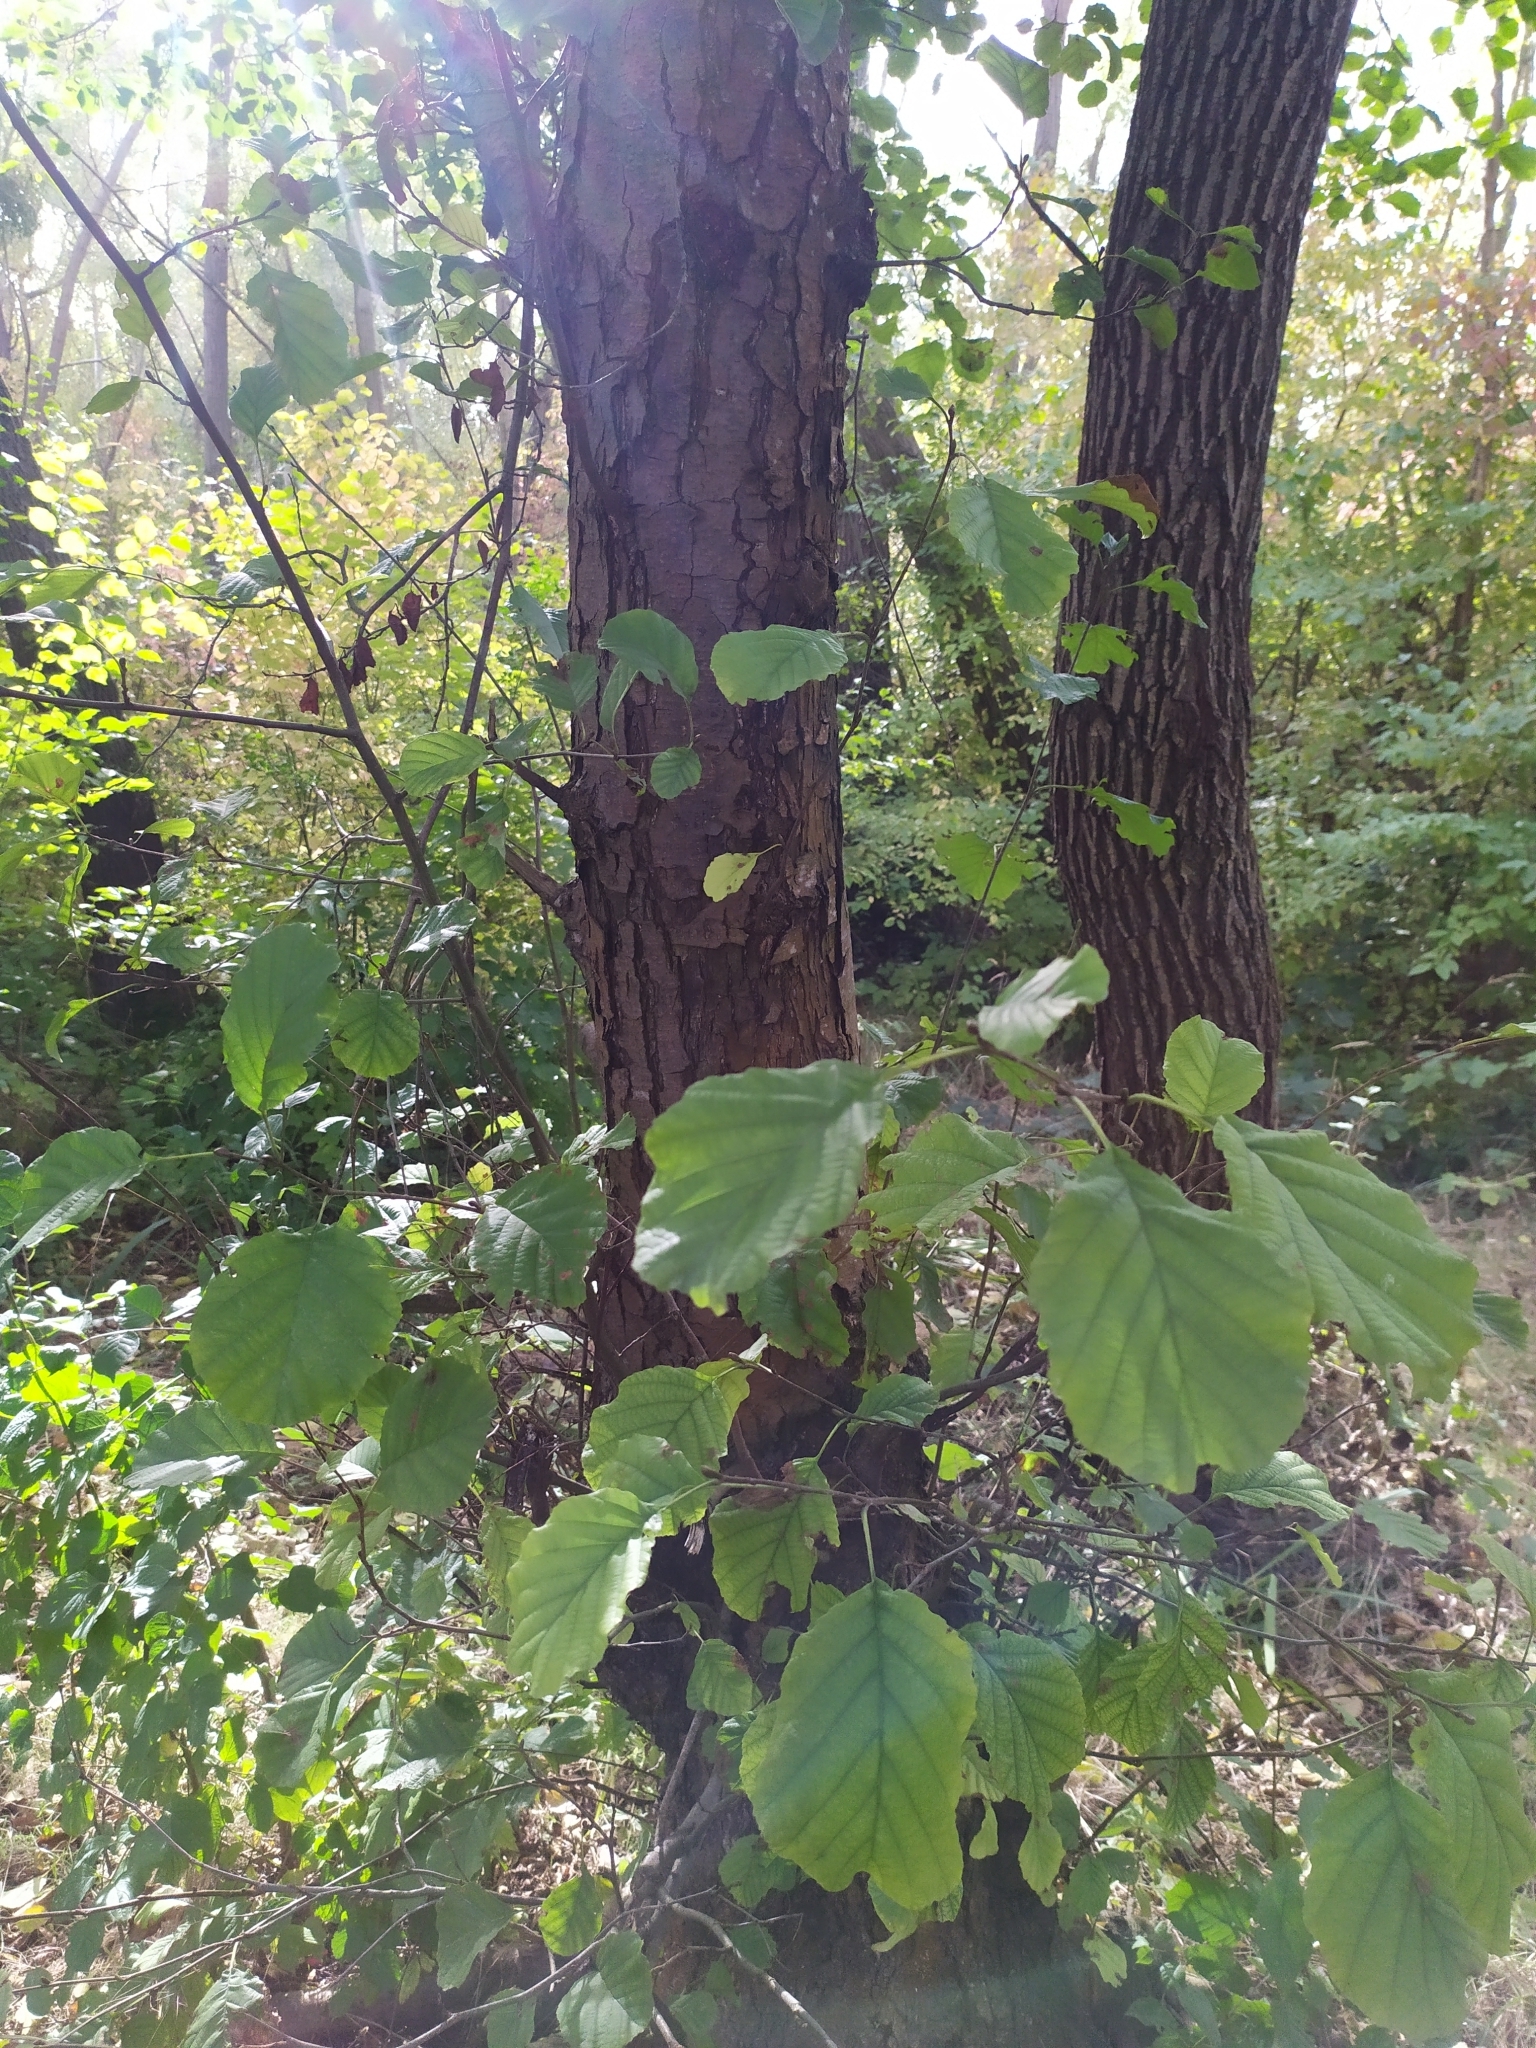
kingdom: Plantae
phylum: Tracheophyta
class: Magnoliopsida
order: Fagales
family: Betulaceae
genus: Alnus
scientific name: Alnus glutinosa
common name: Black alder
